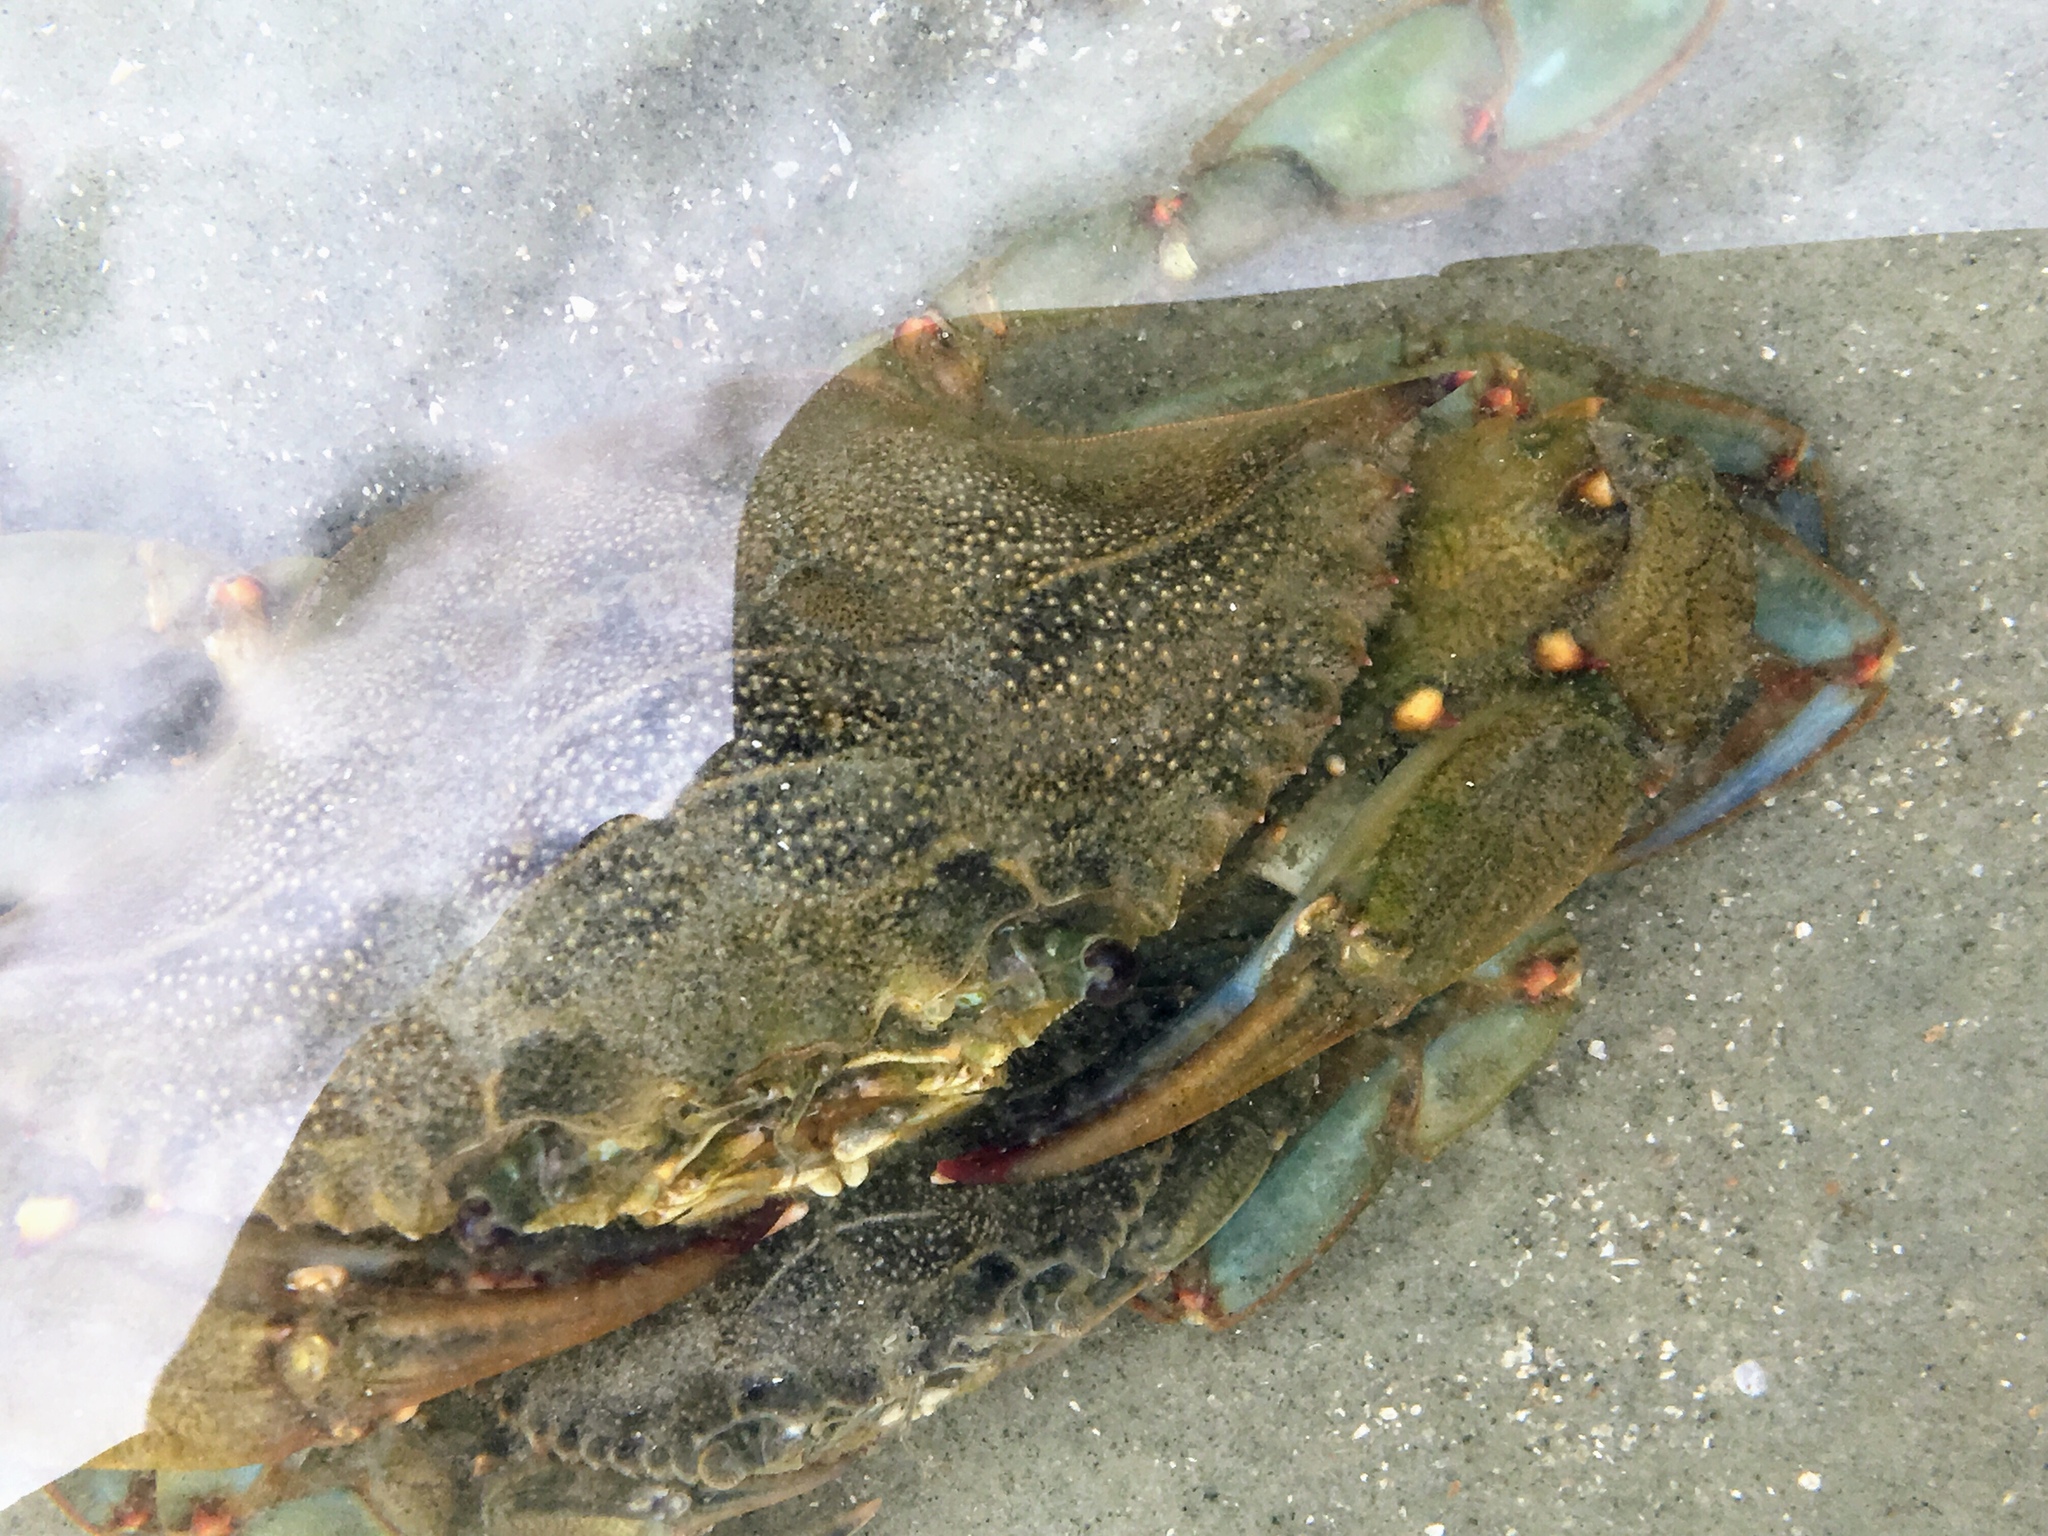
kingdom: Animalia
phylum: Arthropoda
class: Malacostraca
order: Decapoda
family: Portunidae
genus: Callinectes
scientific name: Callinectes sapidus
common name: Blue crab
